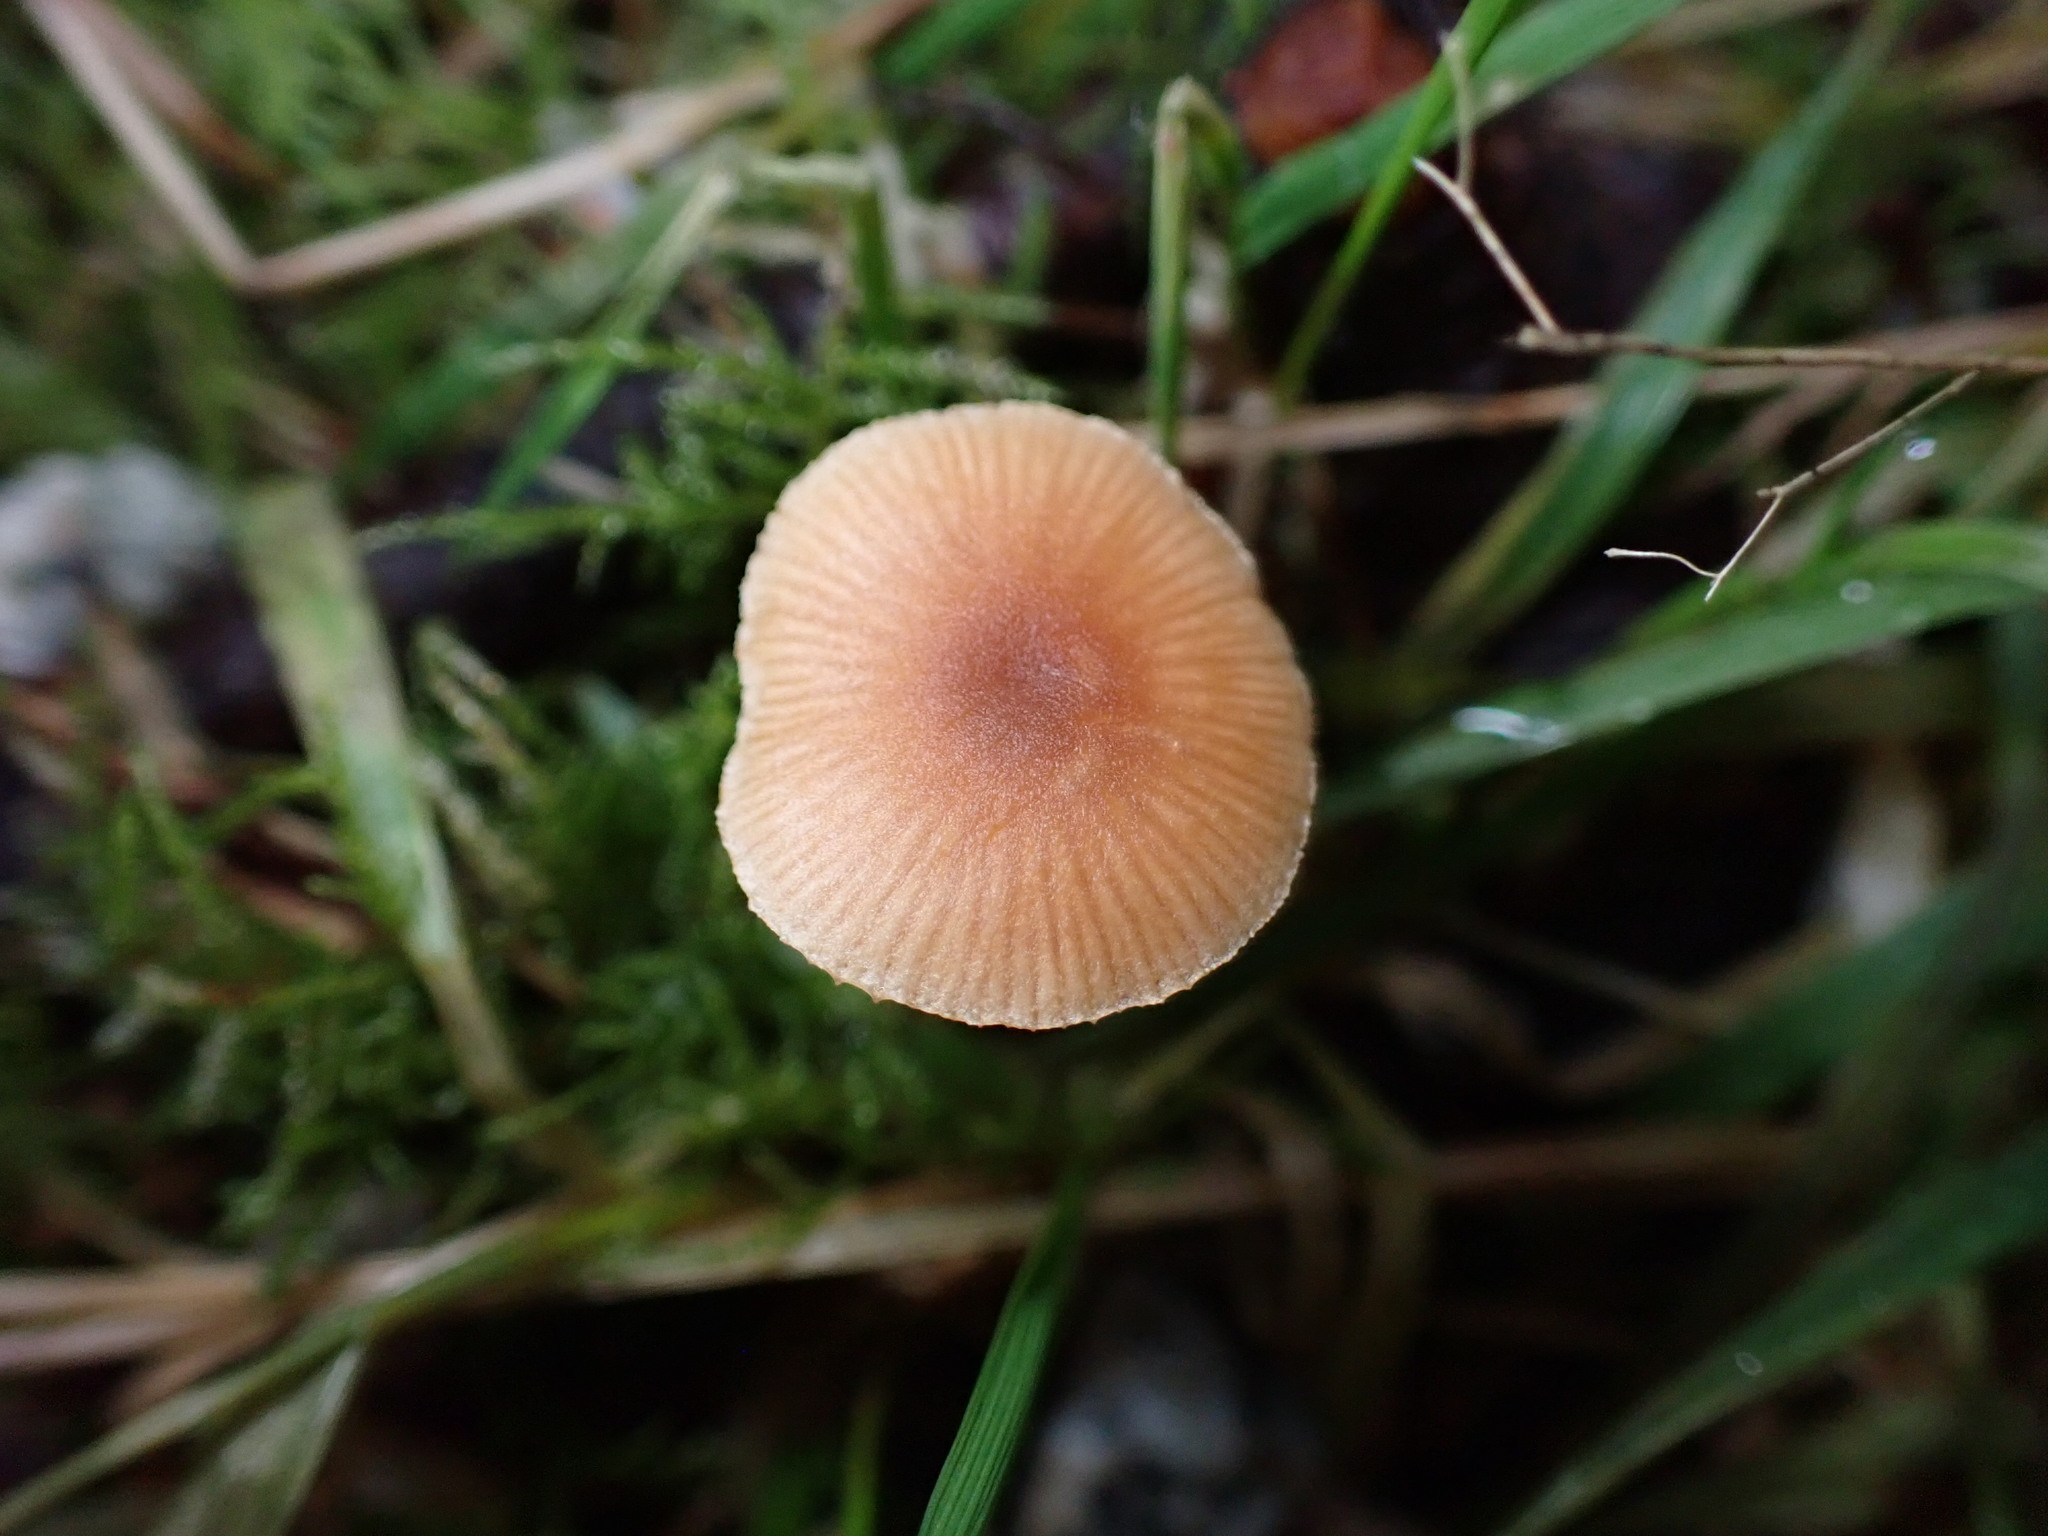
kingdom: Fungi
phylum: Basidiomycota
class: Agaricomycetes
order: Agaricales
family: Tubariaceae
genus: Tubaria
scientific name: Tubaria furfuracea
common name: Scurfy twiglet
